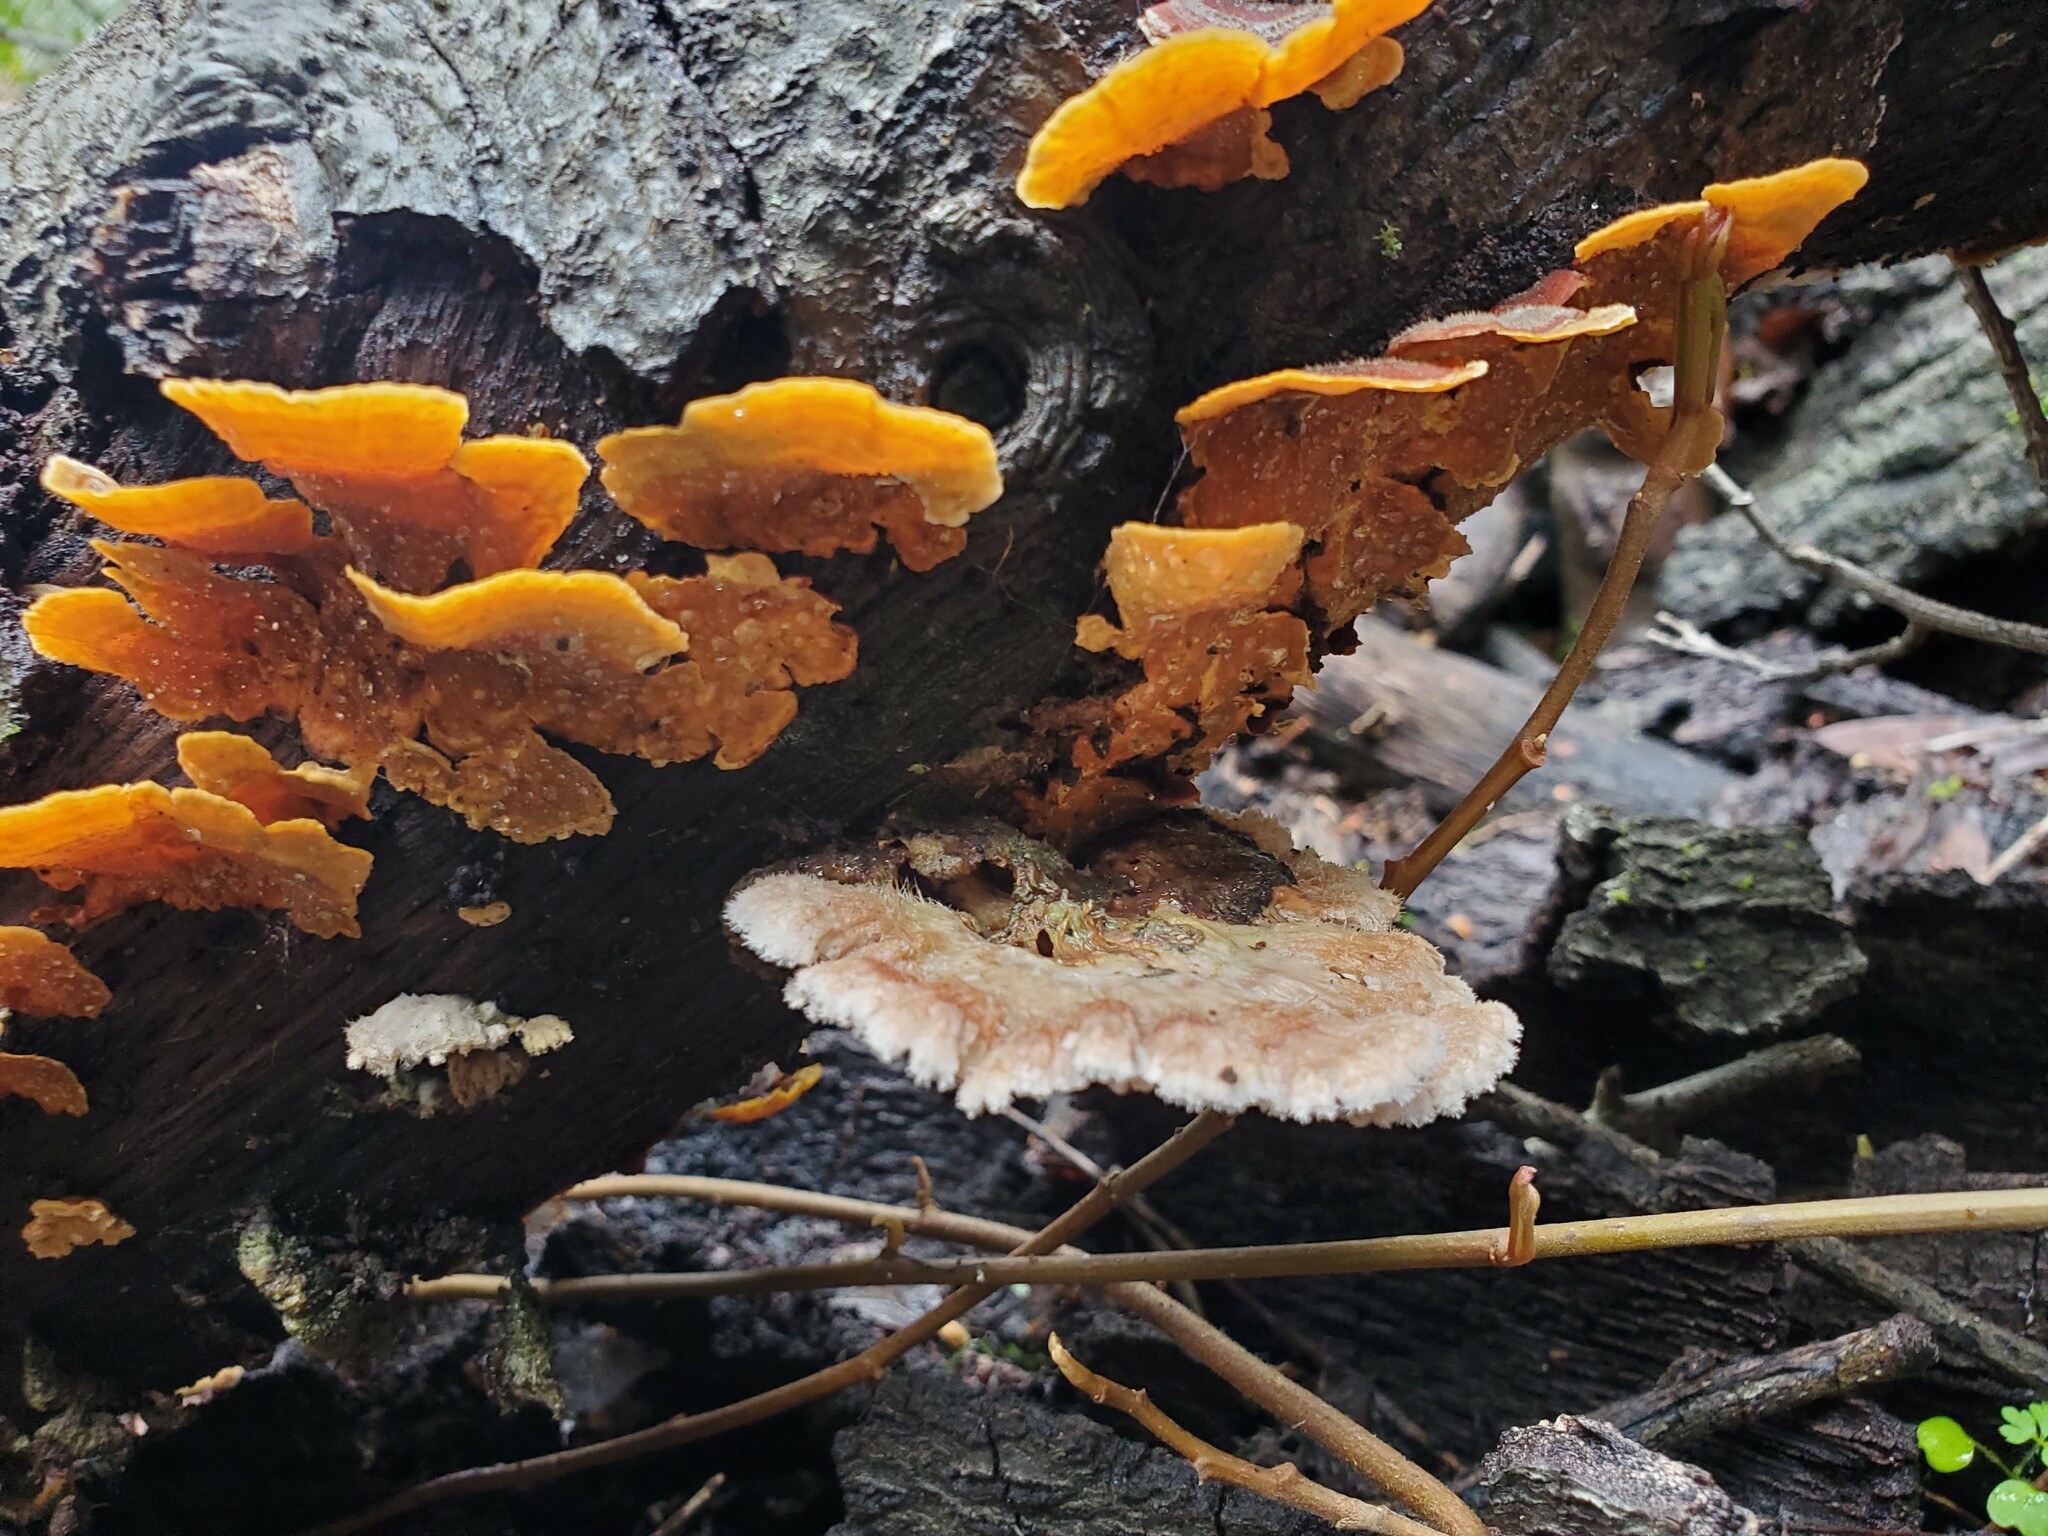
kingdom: Fungi
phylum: Basidiomycota
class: Agaricomycetes
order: Agaricales
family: Schizophyllaceae
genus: Schizophyllum
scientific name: Schizophyllum commune
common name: Common porecrust
